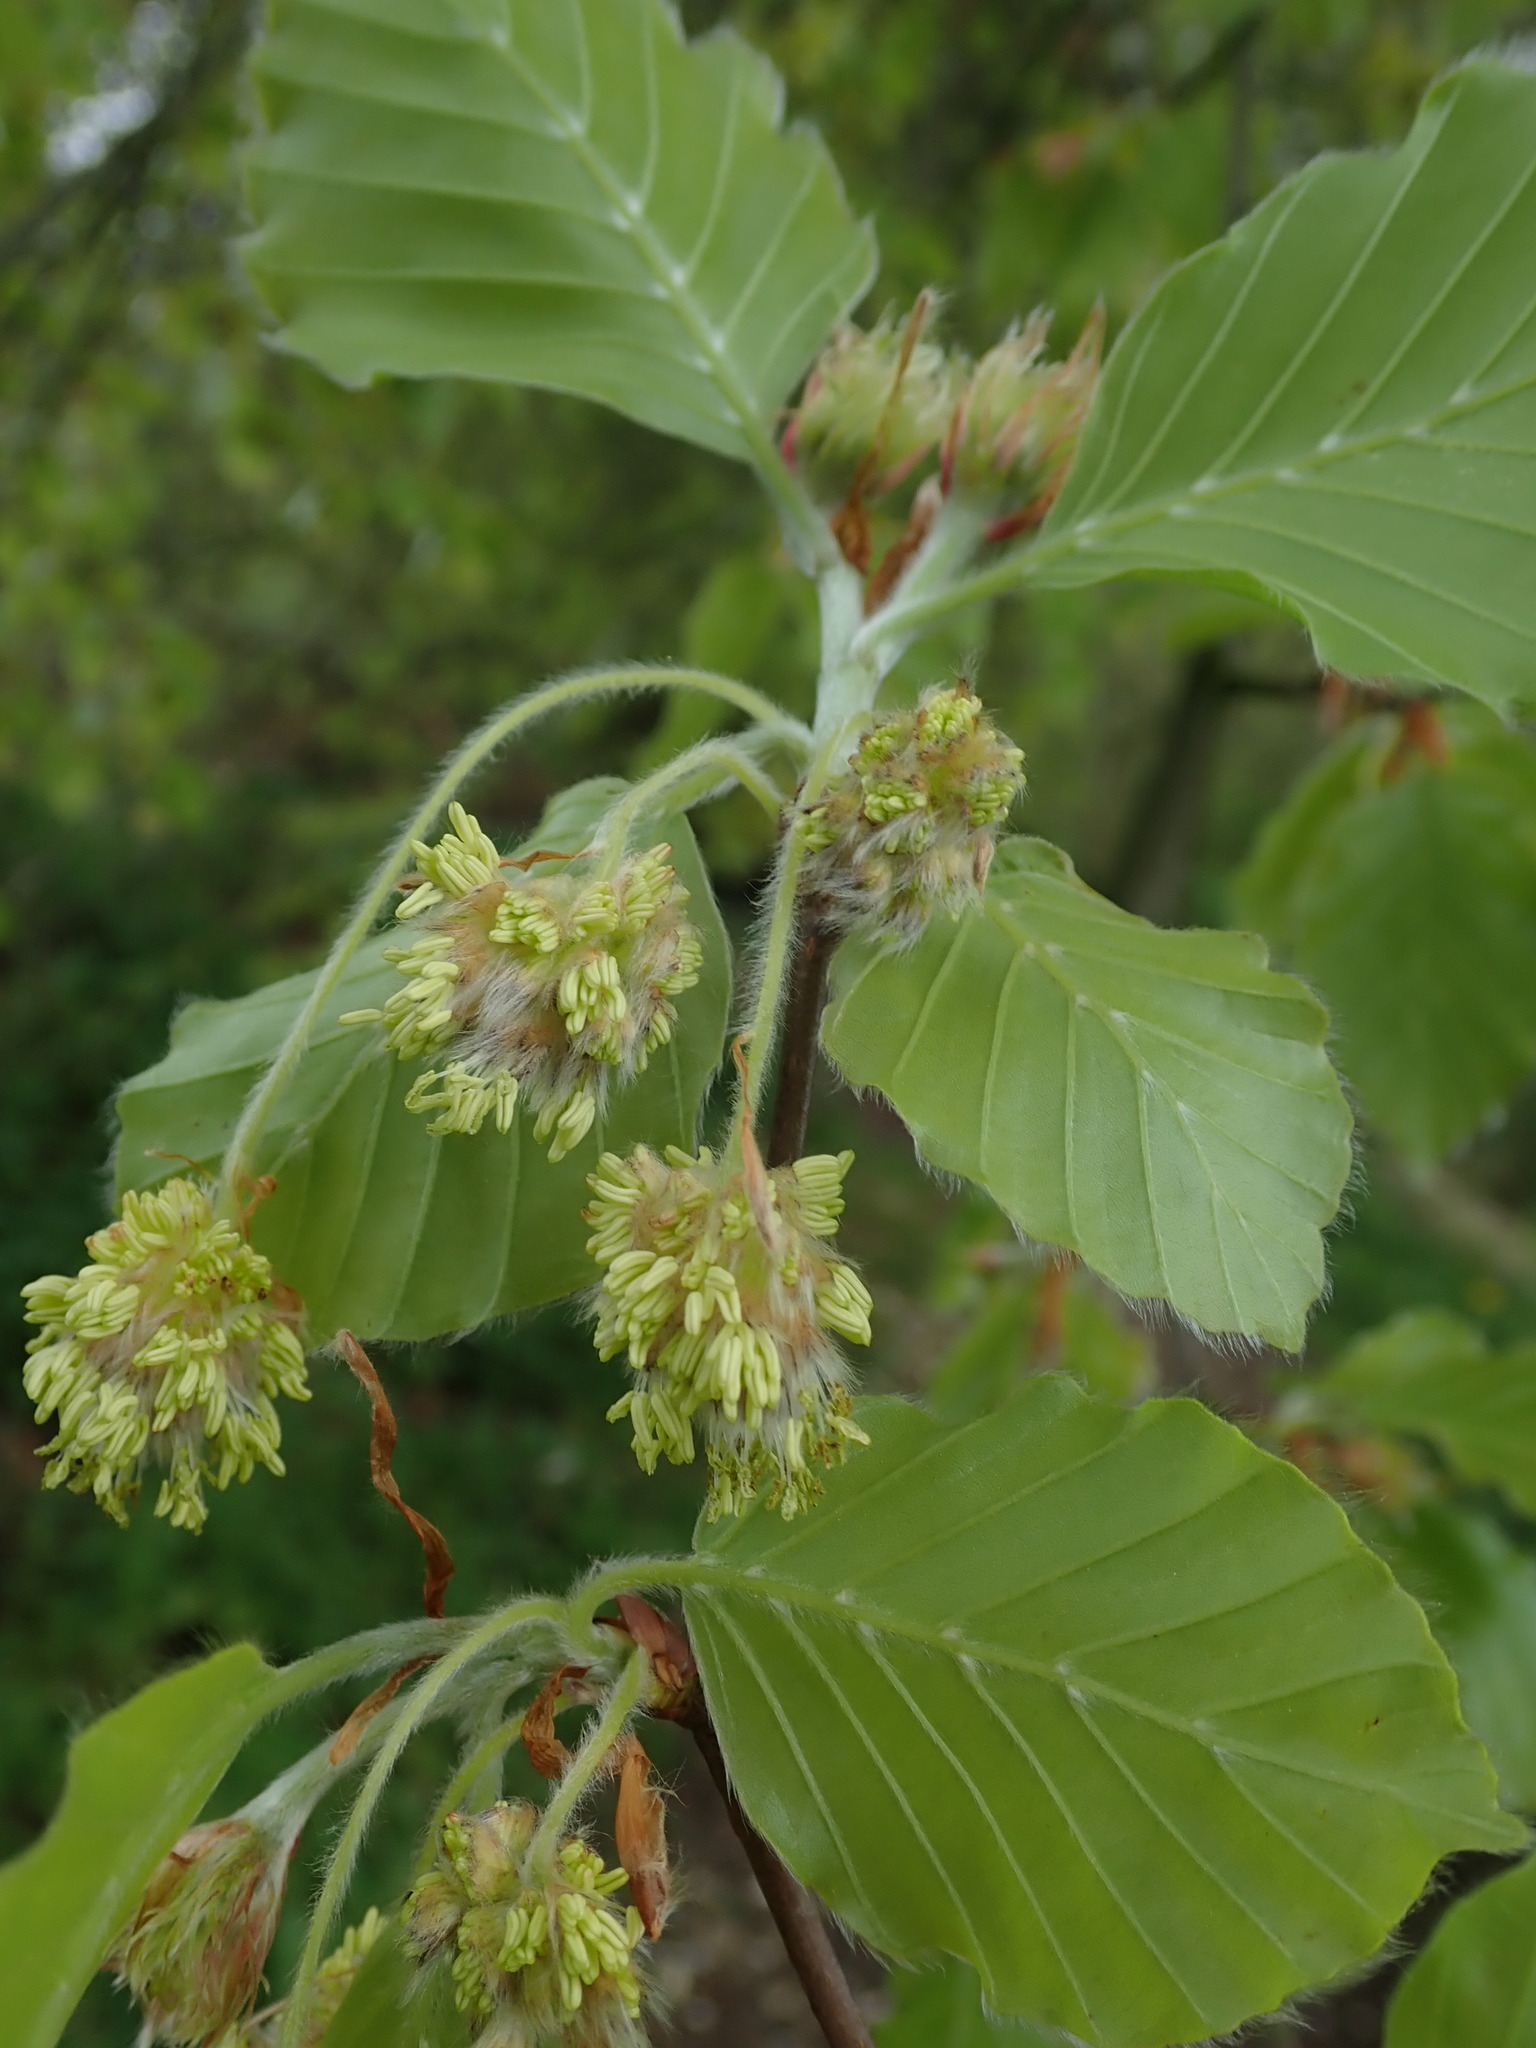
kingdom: Plantae
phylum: Tracheophyta
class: Magnoliopsida
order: Fagales
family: Fagaceae
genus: Fagus
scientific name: Fagus sylvatica
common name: Beech
